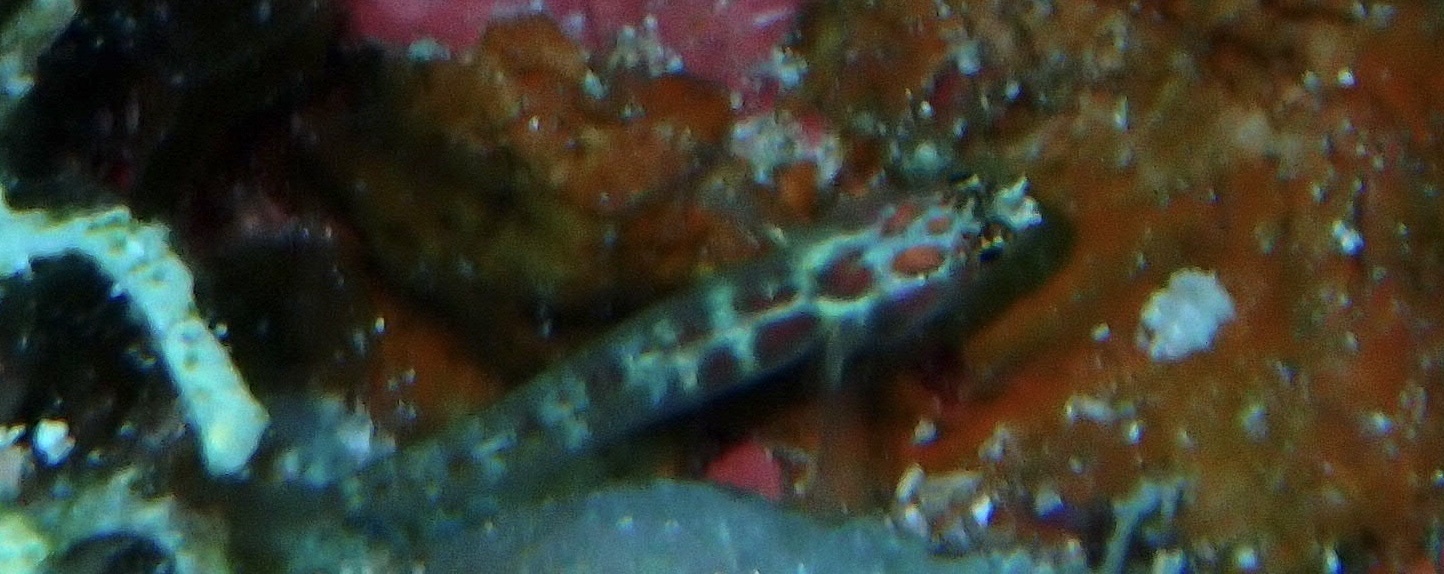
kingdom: Animalia
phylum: Chordata
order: Perciformes
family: Gobiidae
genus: Eviota
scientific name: Eviota guttata
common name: Green pygmy-goby
